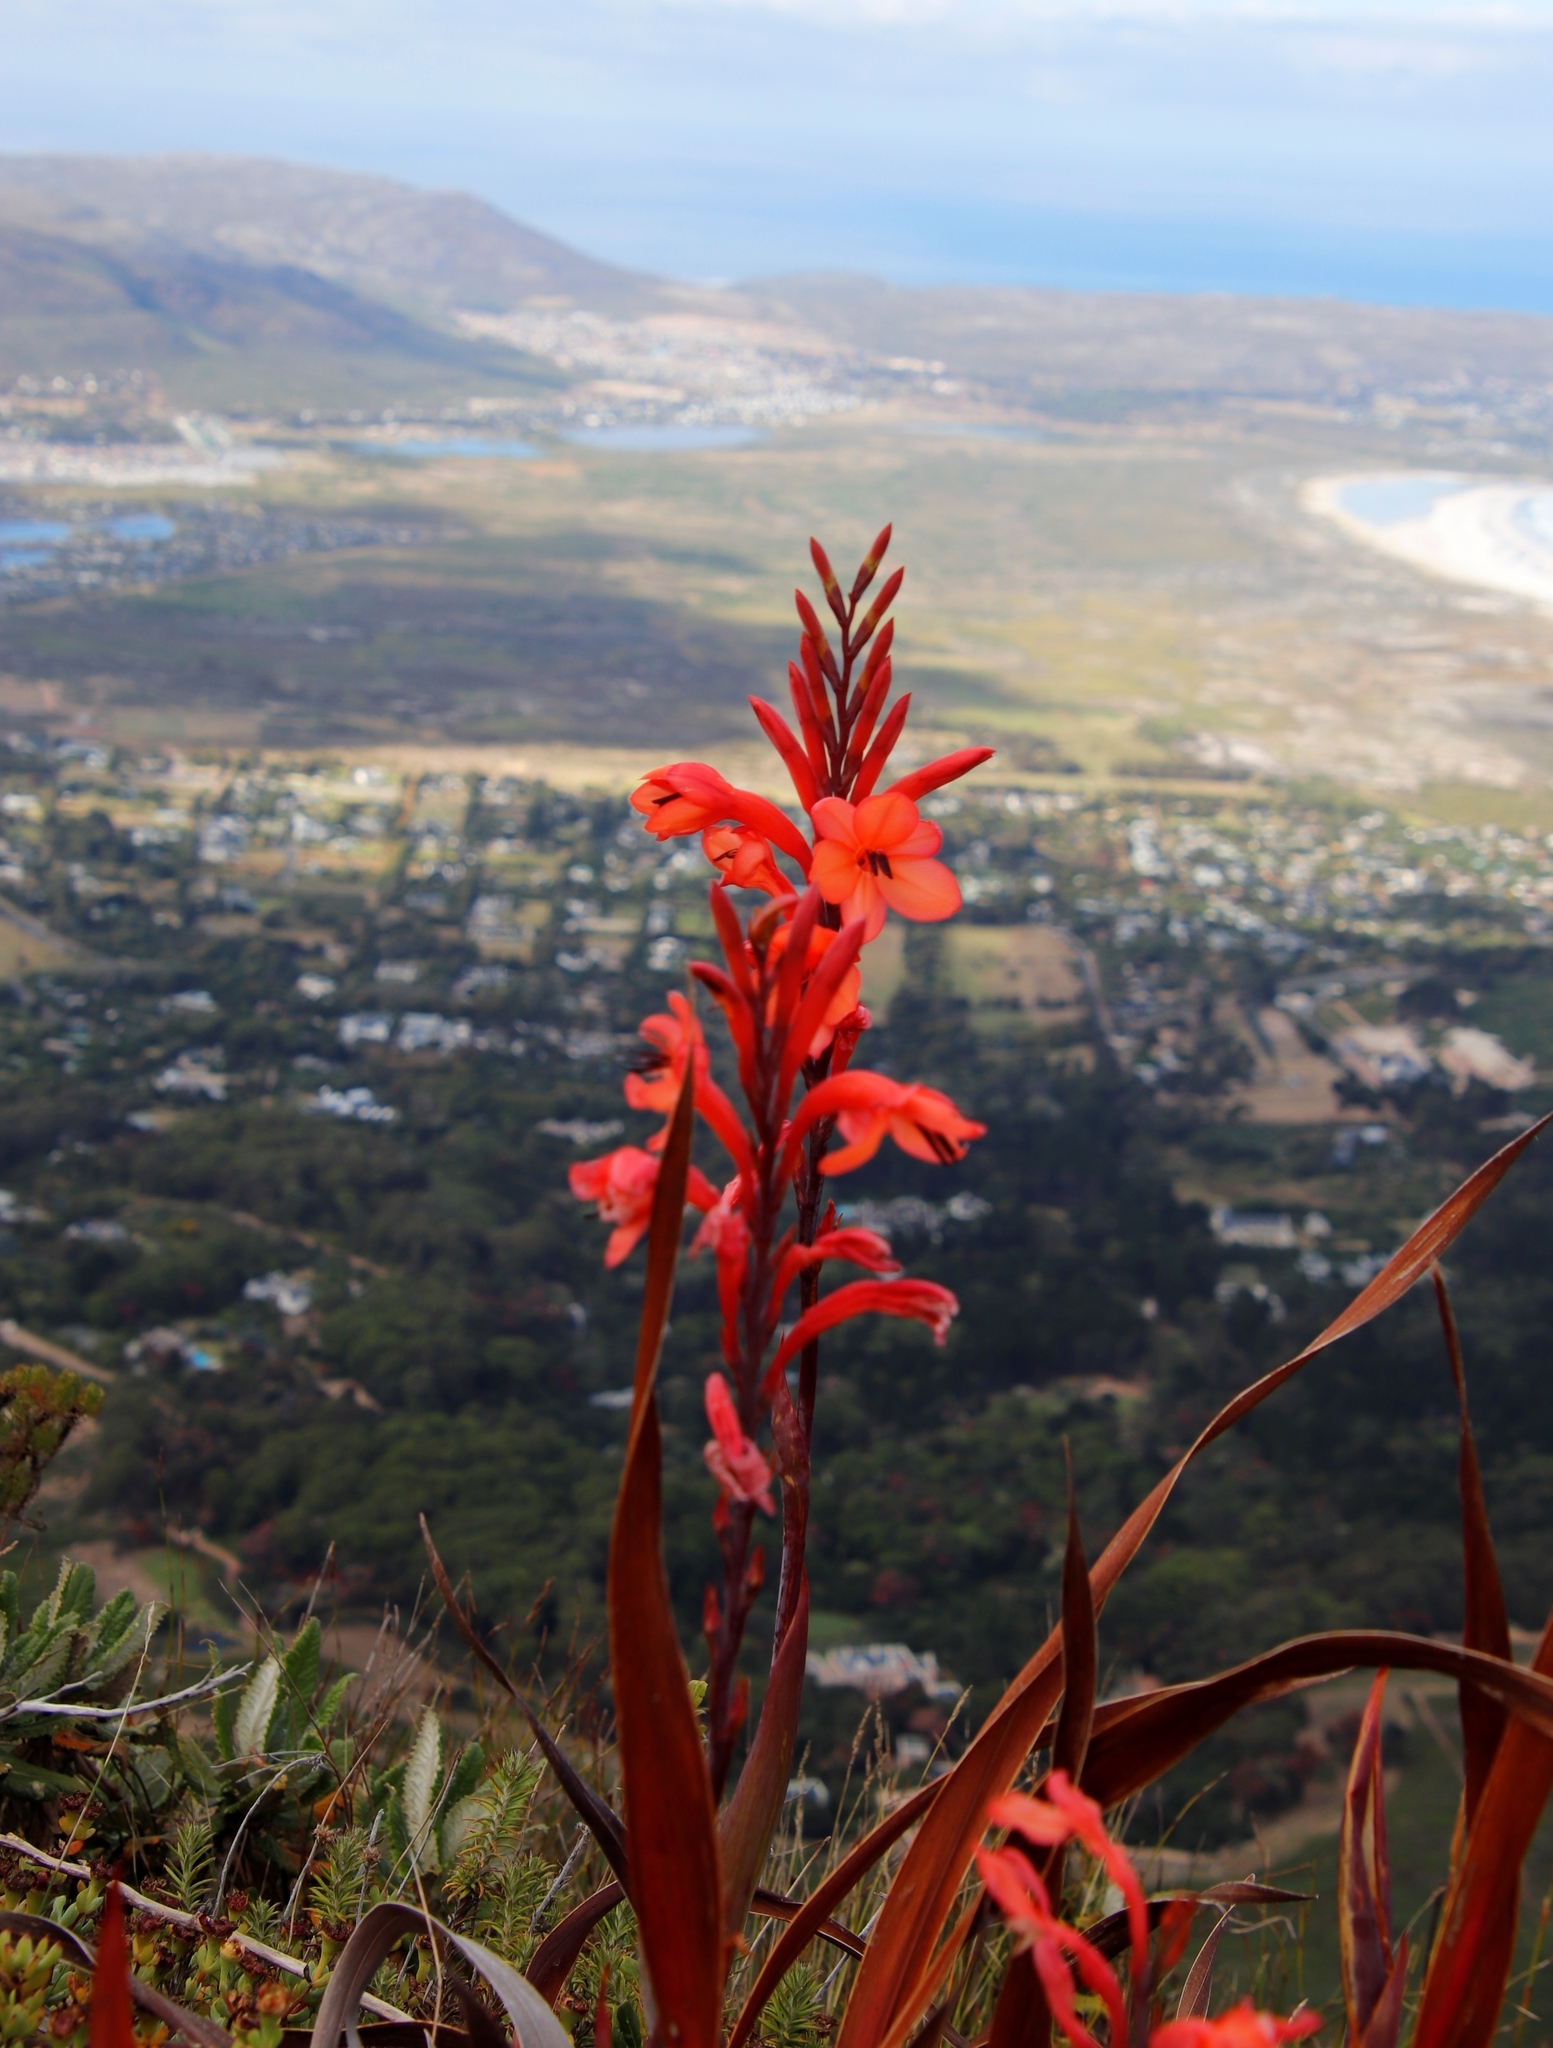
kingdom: Plantae
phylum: Tracheophyta
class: Liliopsida
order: Asparagales
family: Iridaceae
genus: Watsonia
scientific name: Watsonia tabularis
